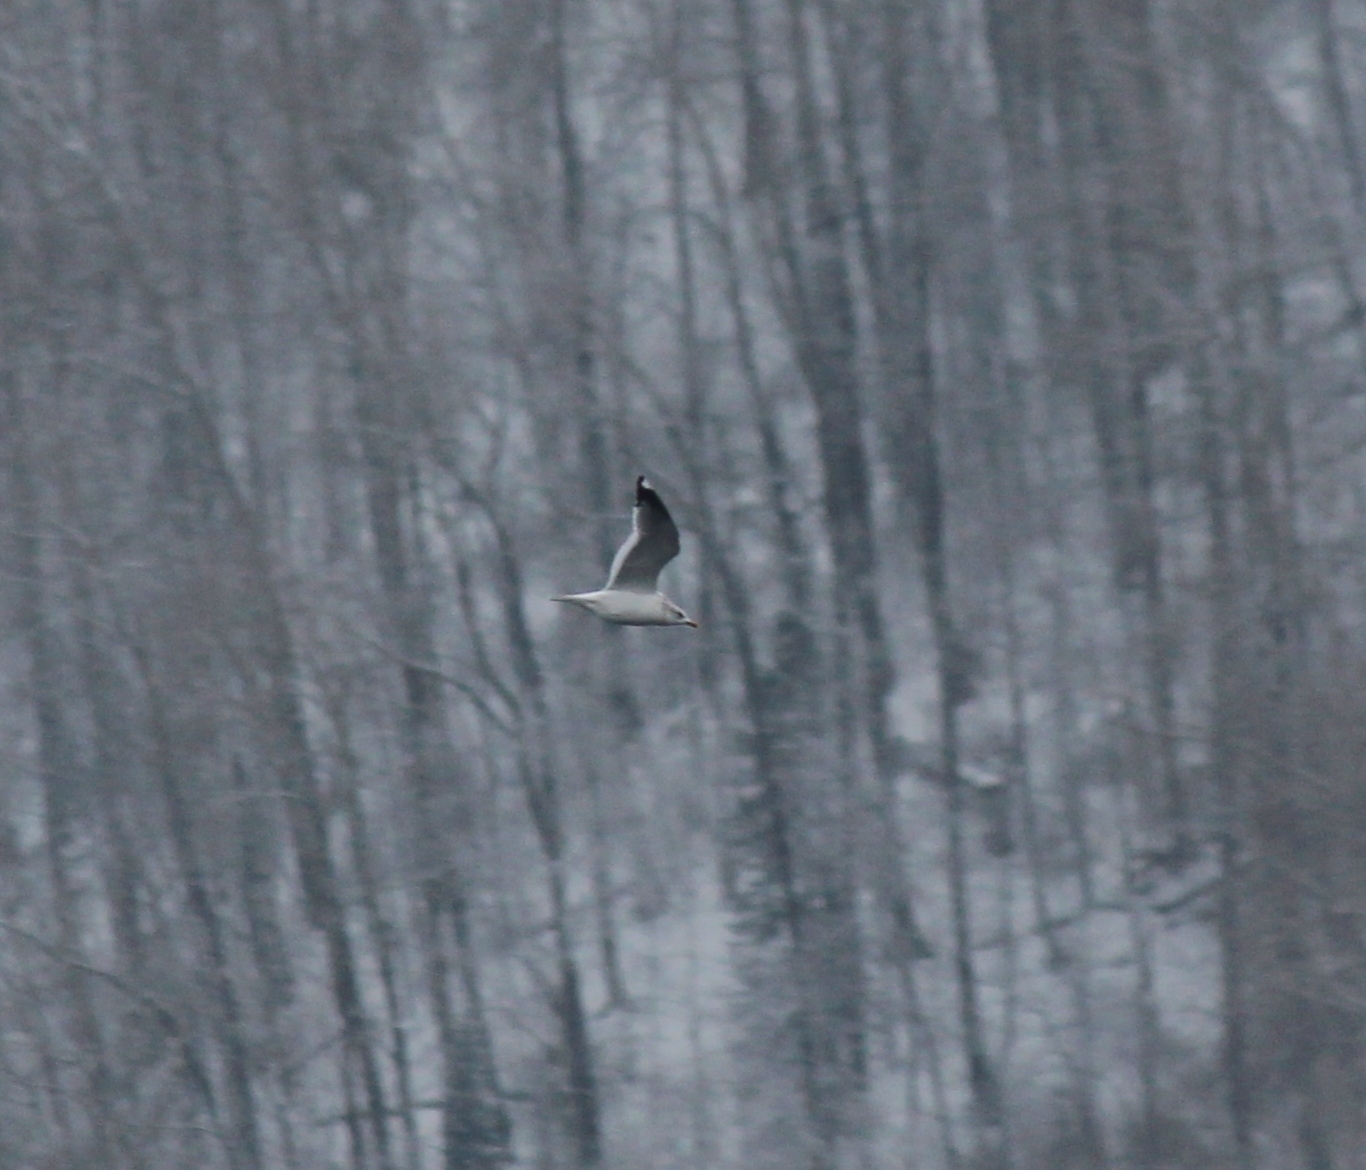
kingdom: Animalia
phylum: Chordata
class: Aves
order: Charadriiformes
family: Laridae
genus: Larus
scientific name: Larus canus
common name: Mew gull
